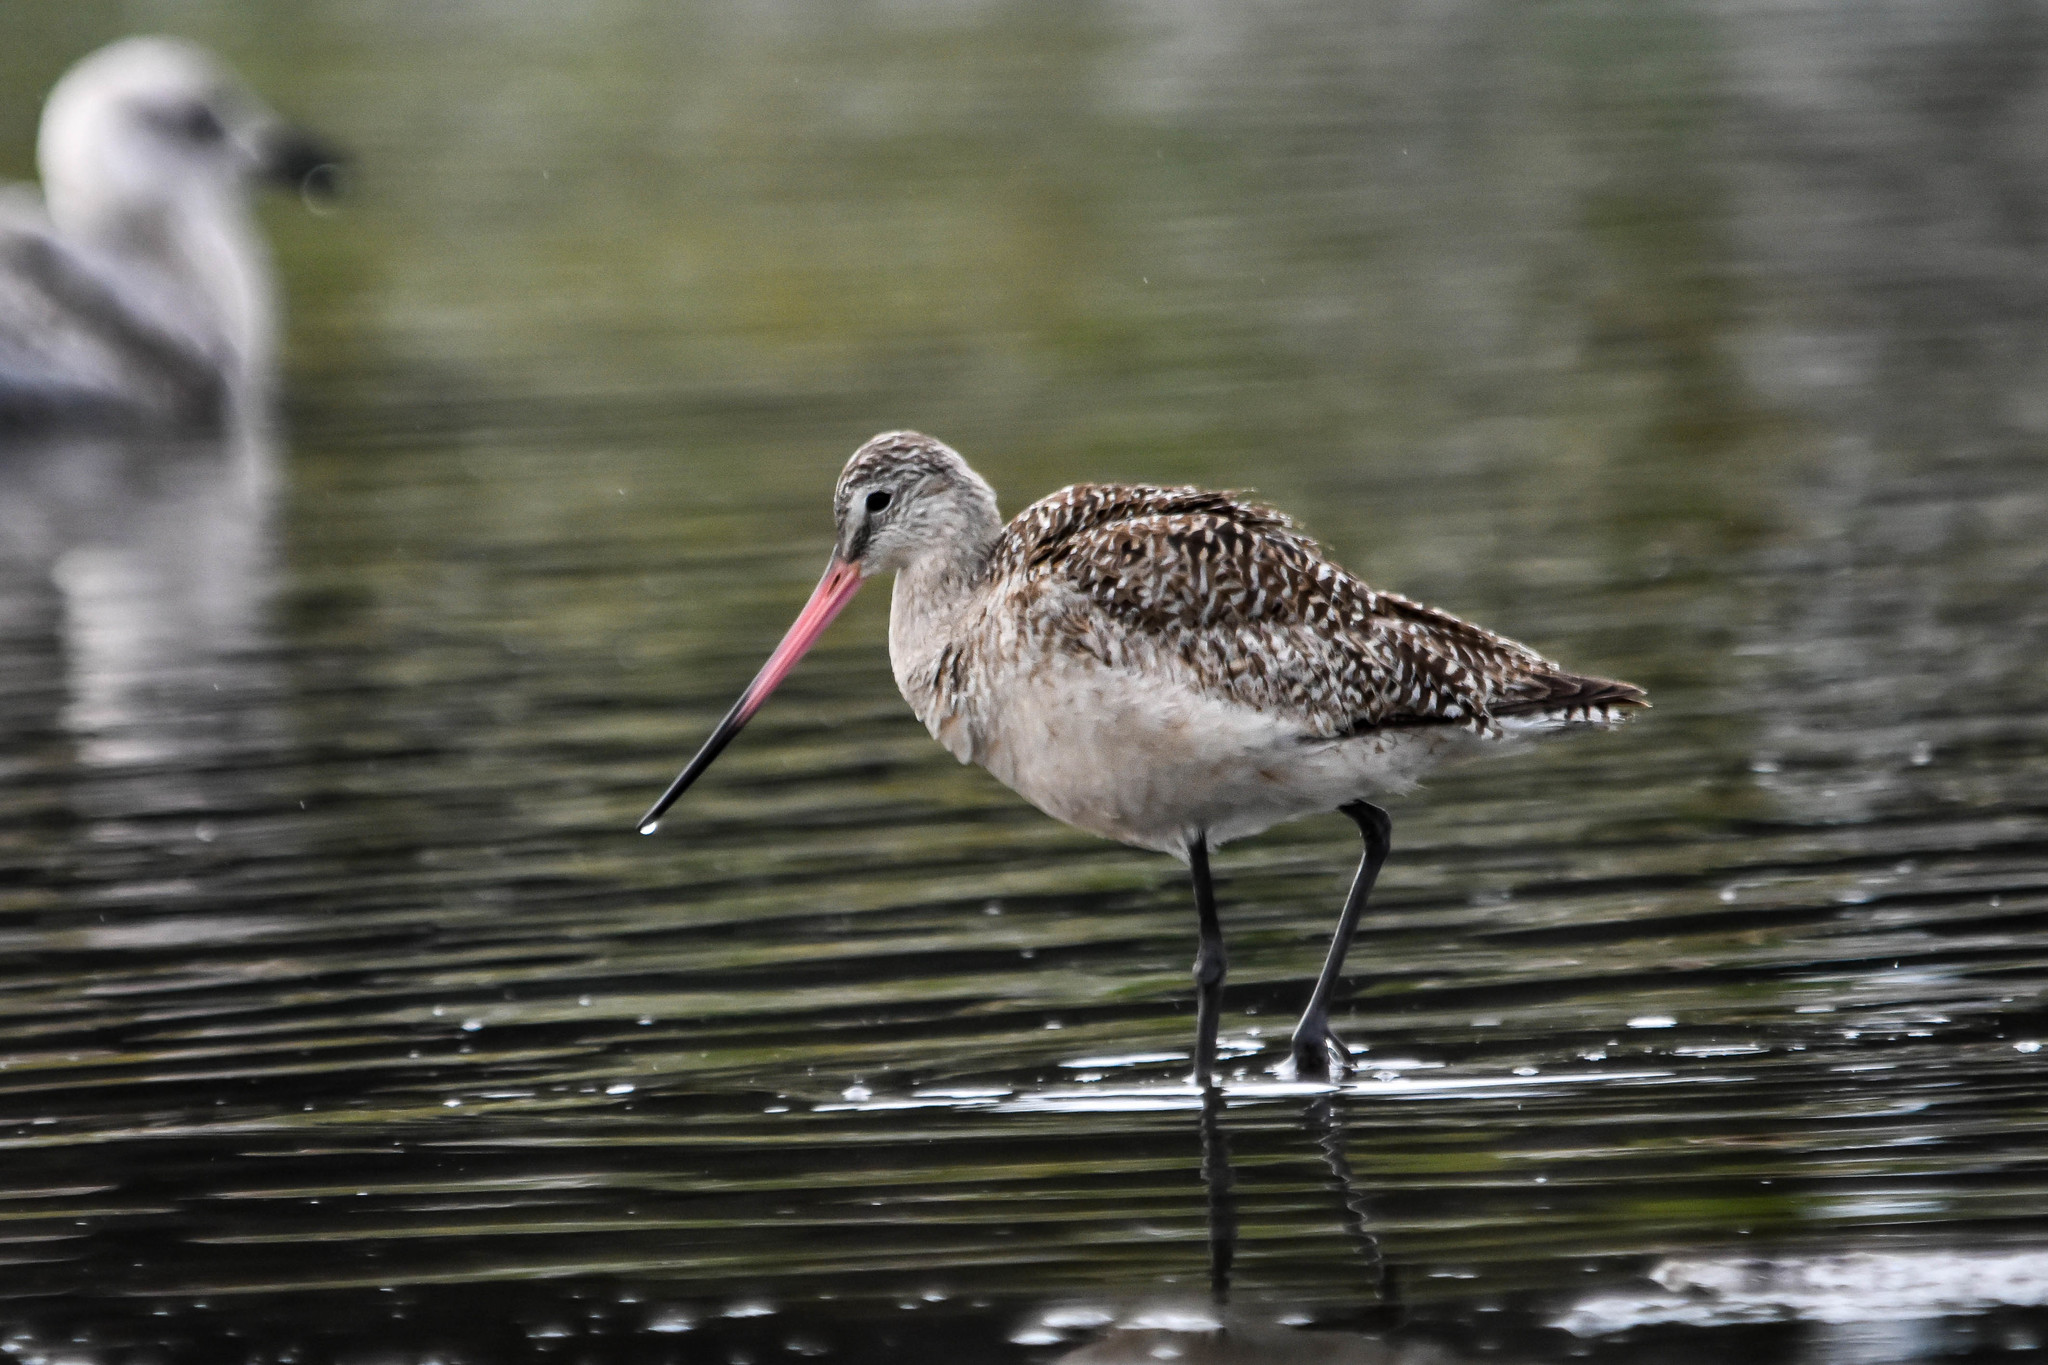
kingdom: Animalia
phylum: Chordata
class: Aves
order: Charadriiformes
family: Scolopacidae
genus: Limosa
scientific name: Limosa fedoa
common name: Marbled godwit
